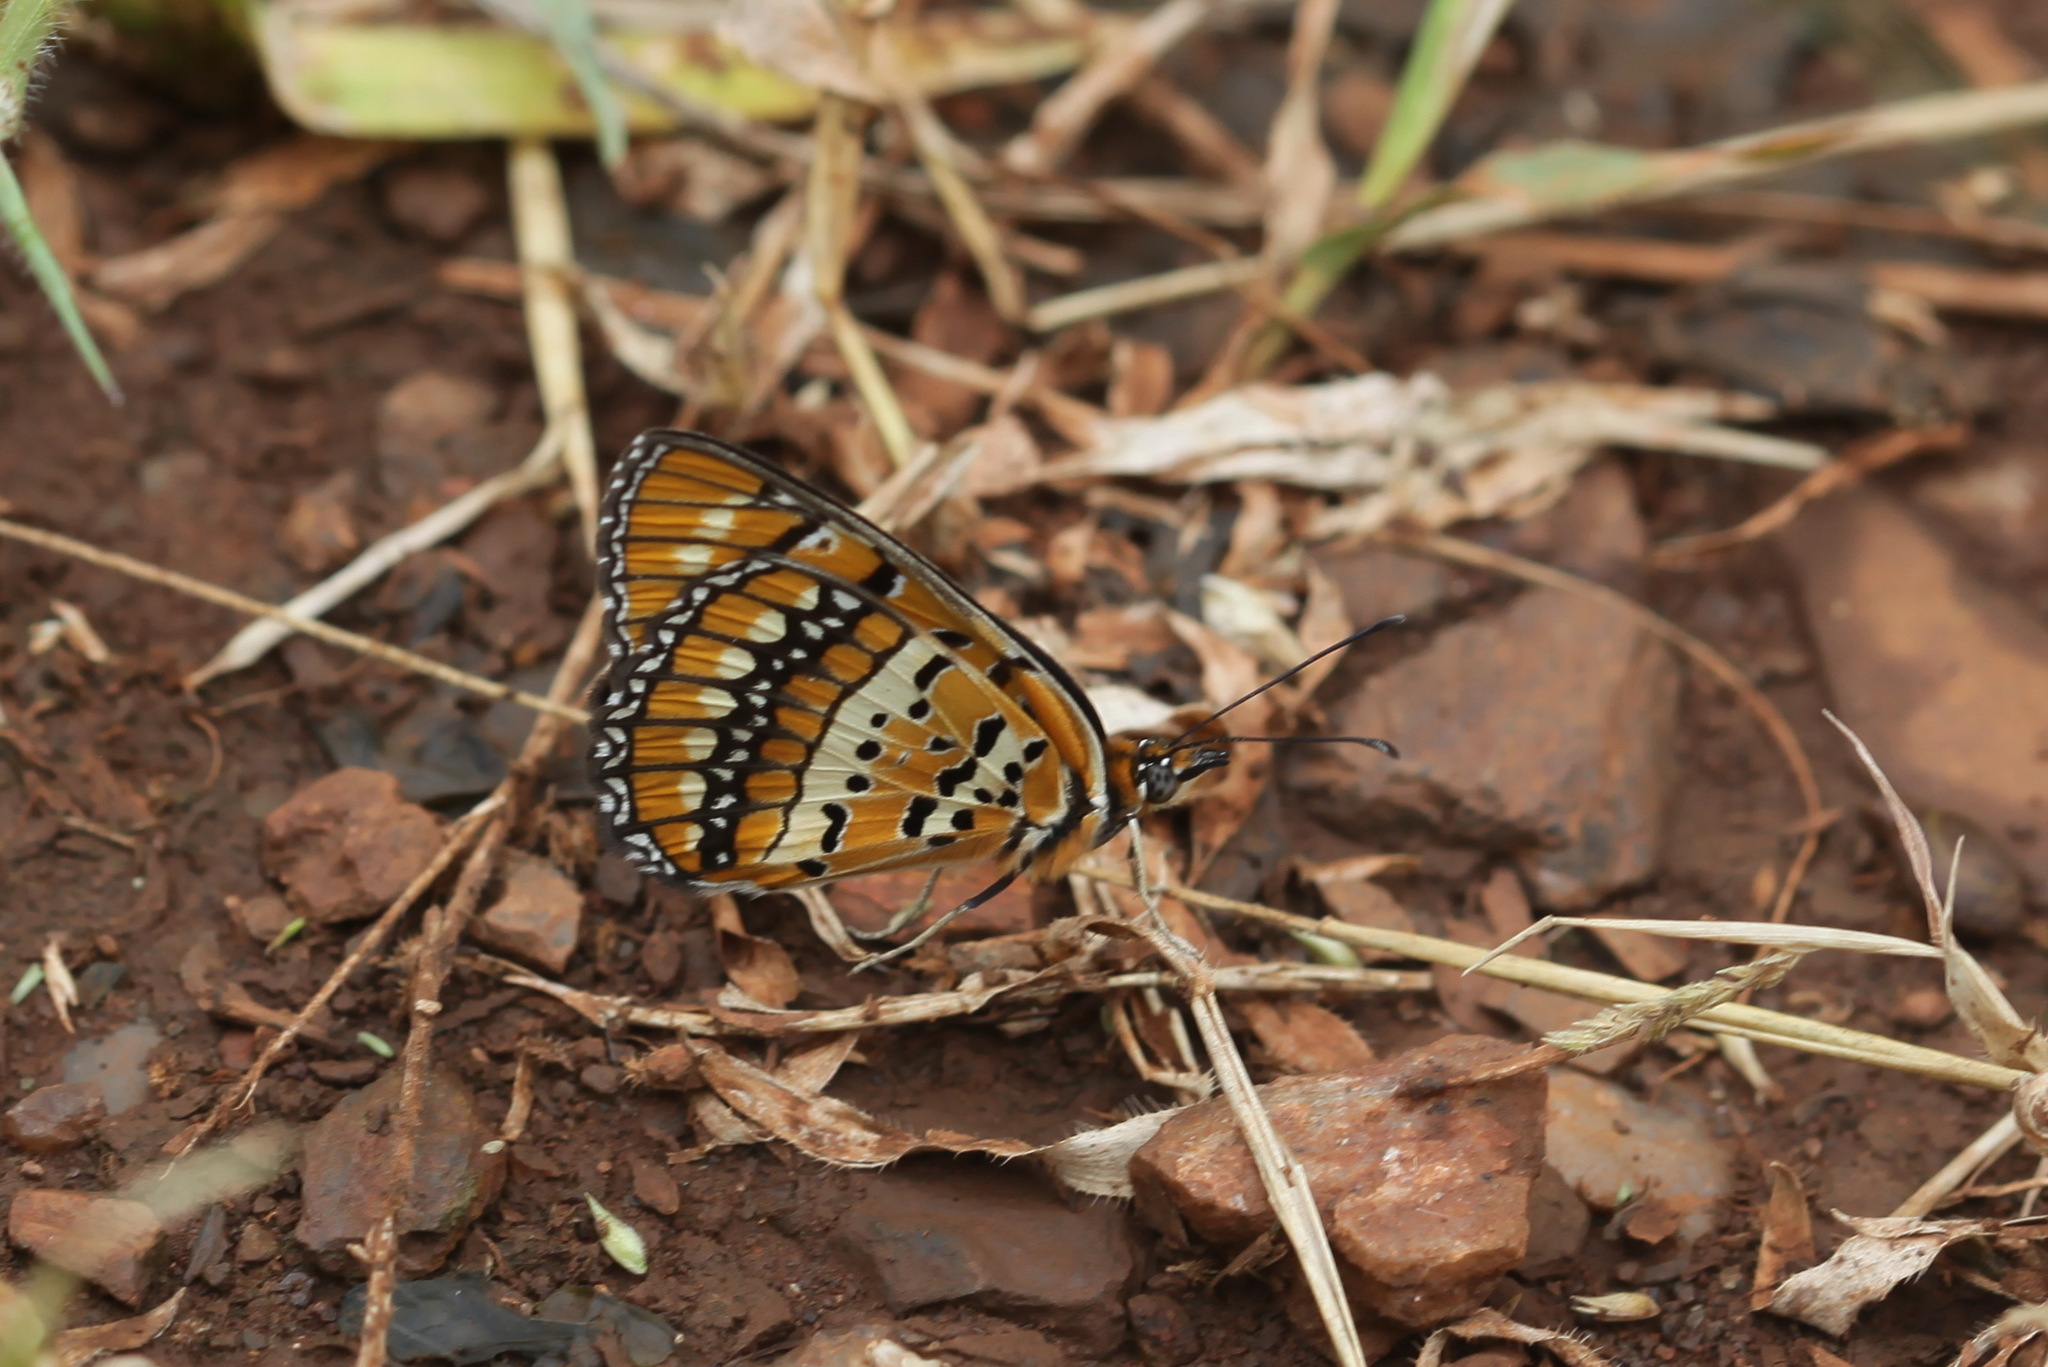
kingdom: Animalia
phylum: Arthropoda
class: Insecta
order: Lepidoptera
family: Nymphalidae
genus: Byblia
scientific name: Byblia ilithyia
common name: Spotted joker
